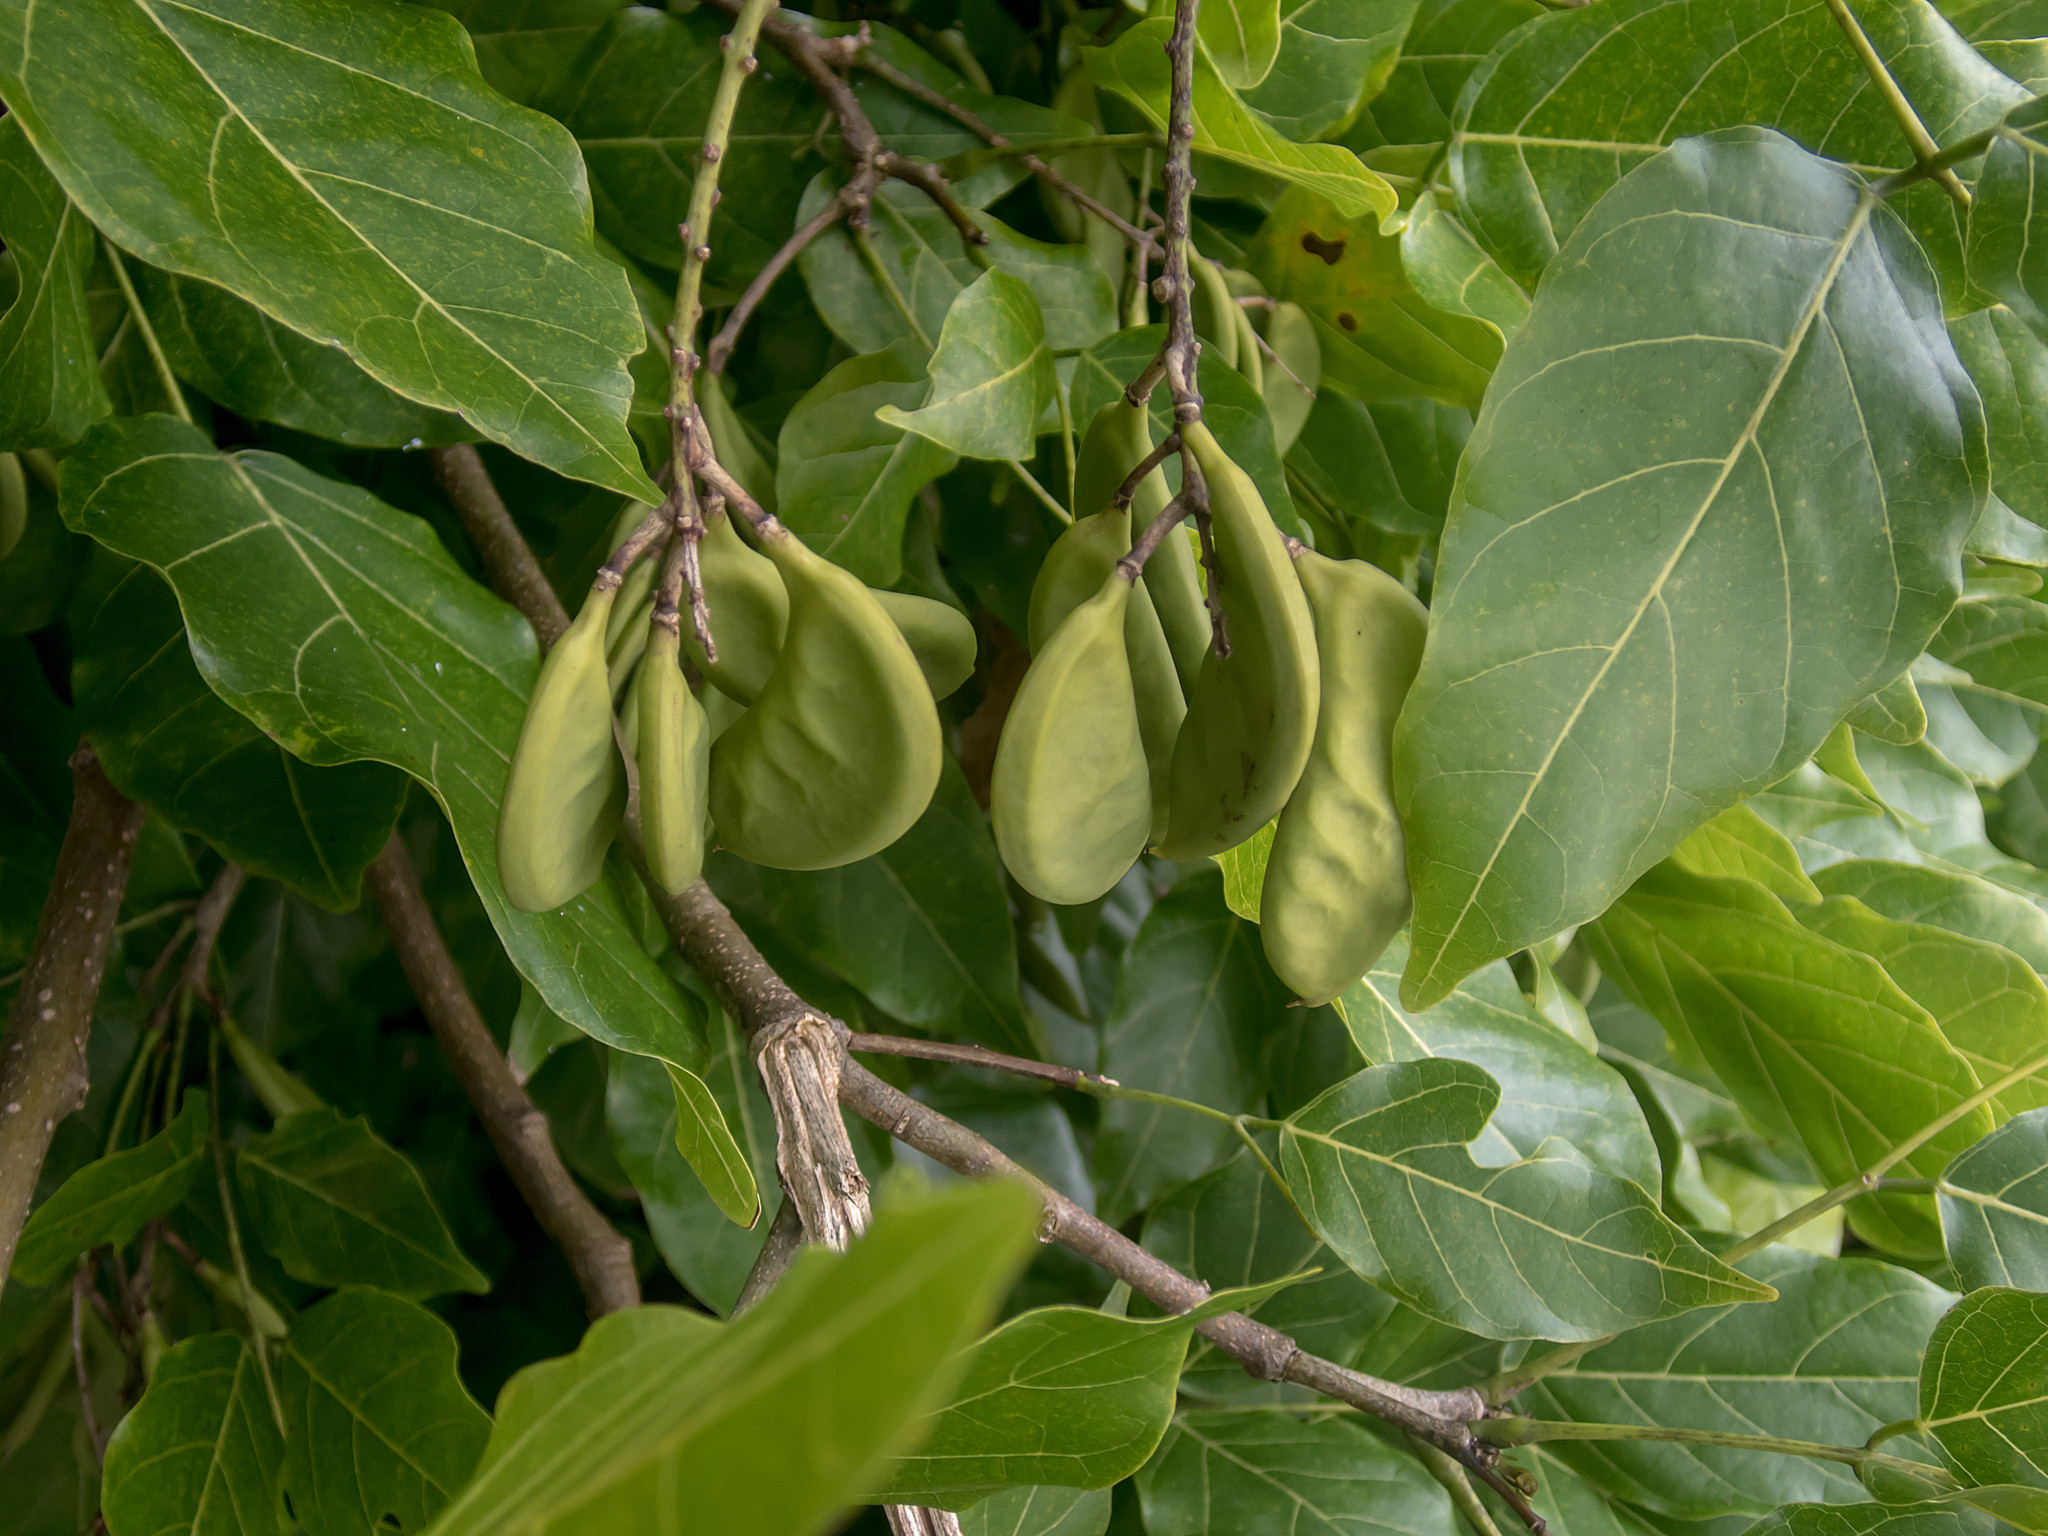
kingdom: Plantae
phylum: Tracheophyta
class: Magnoliopsida
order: Fabales
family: Fabaceae
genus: Pongamia
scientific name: Pongamia pinnata
